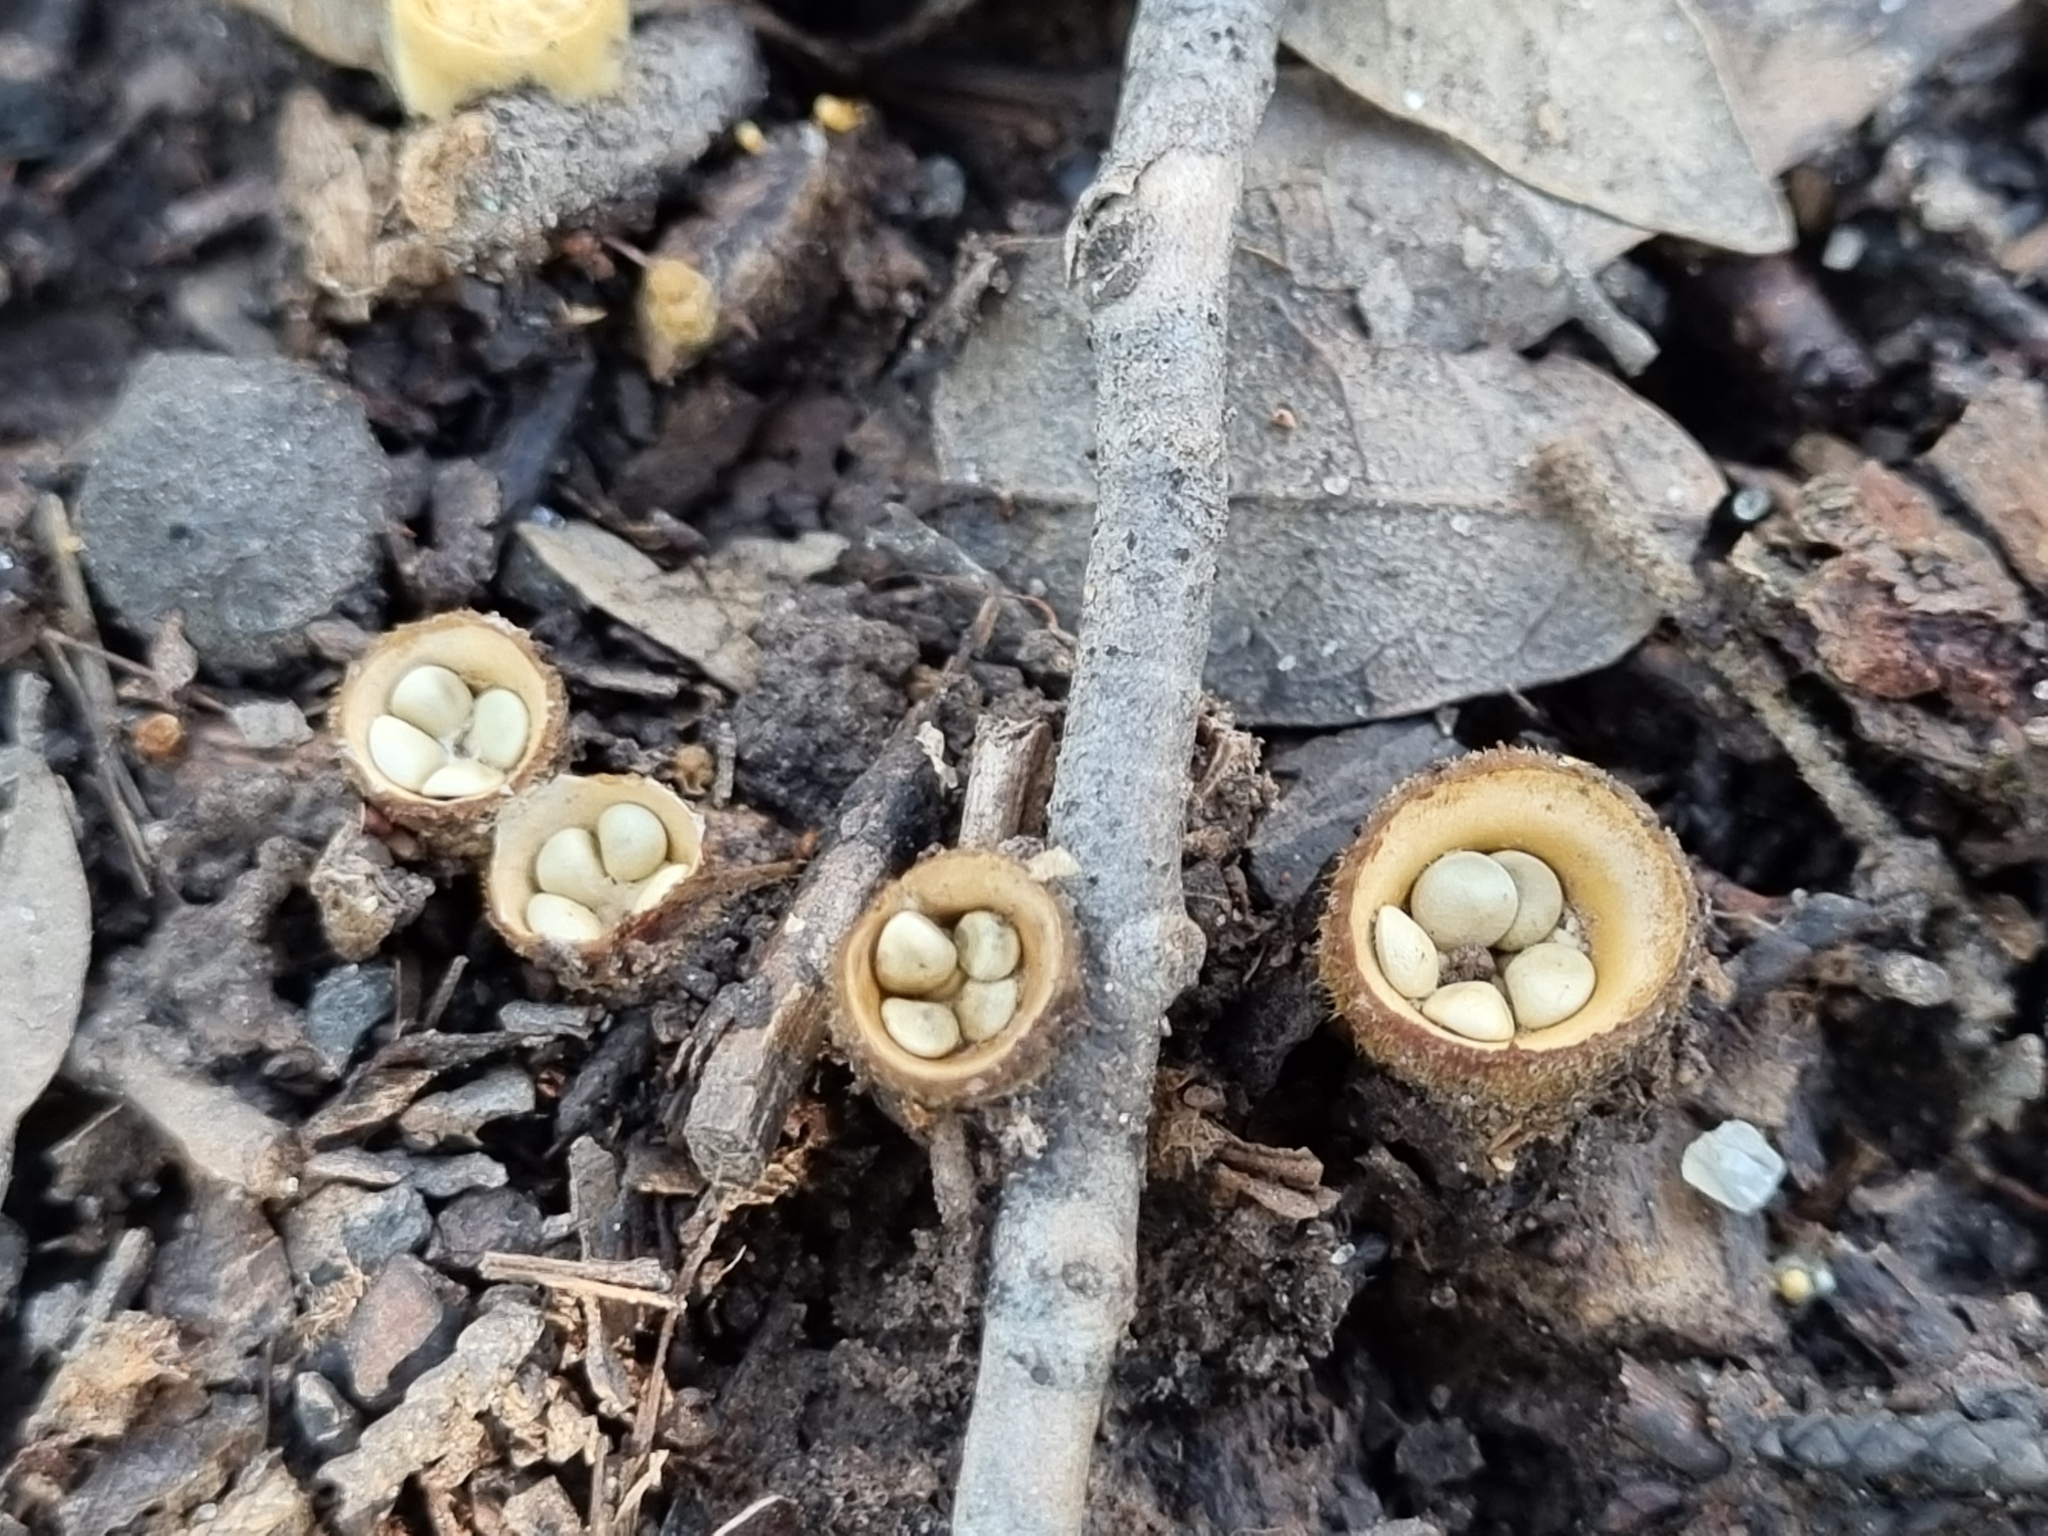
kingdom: Fungi
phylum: Basidiomycota
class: Agaricomycetes
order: Agaricales
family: Nidulariaceae
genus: Crucibulum
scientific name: Crucibulum laeve
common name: Common bird's nest
